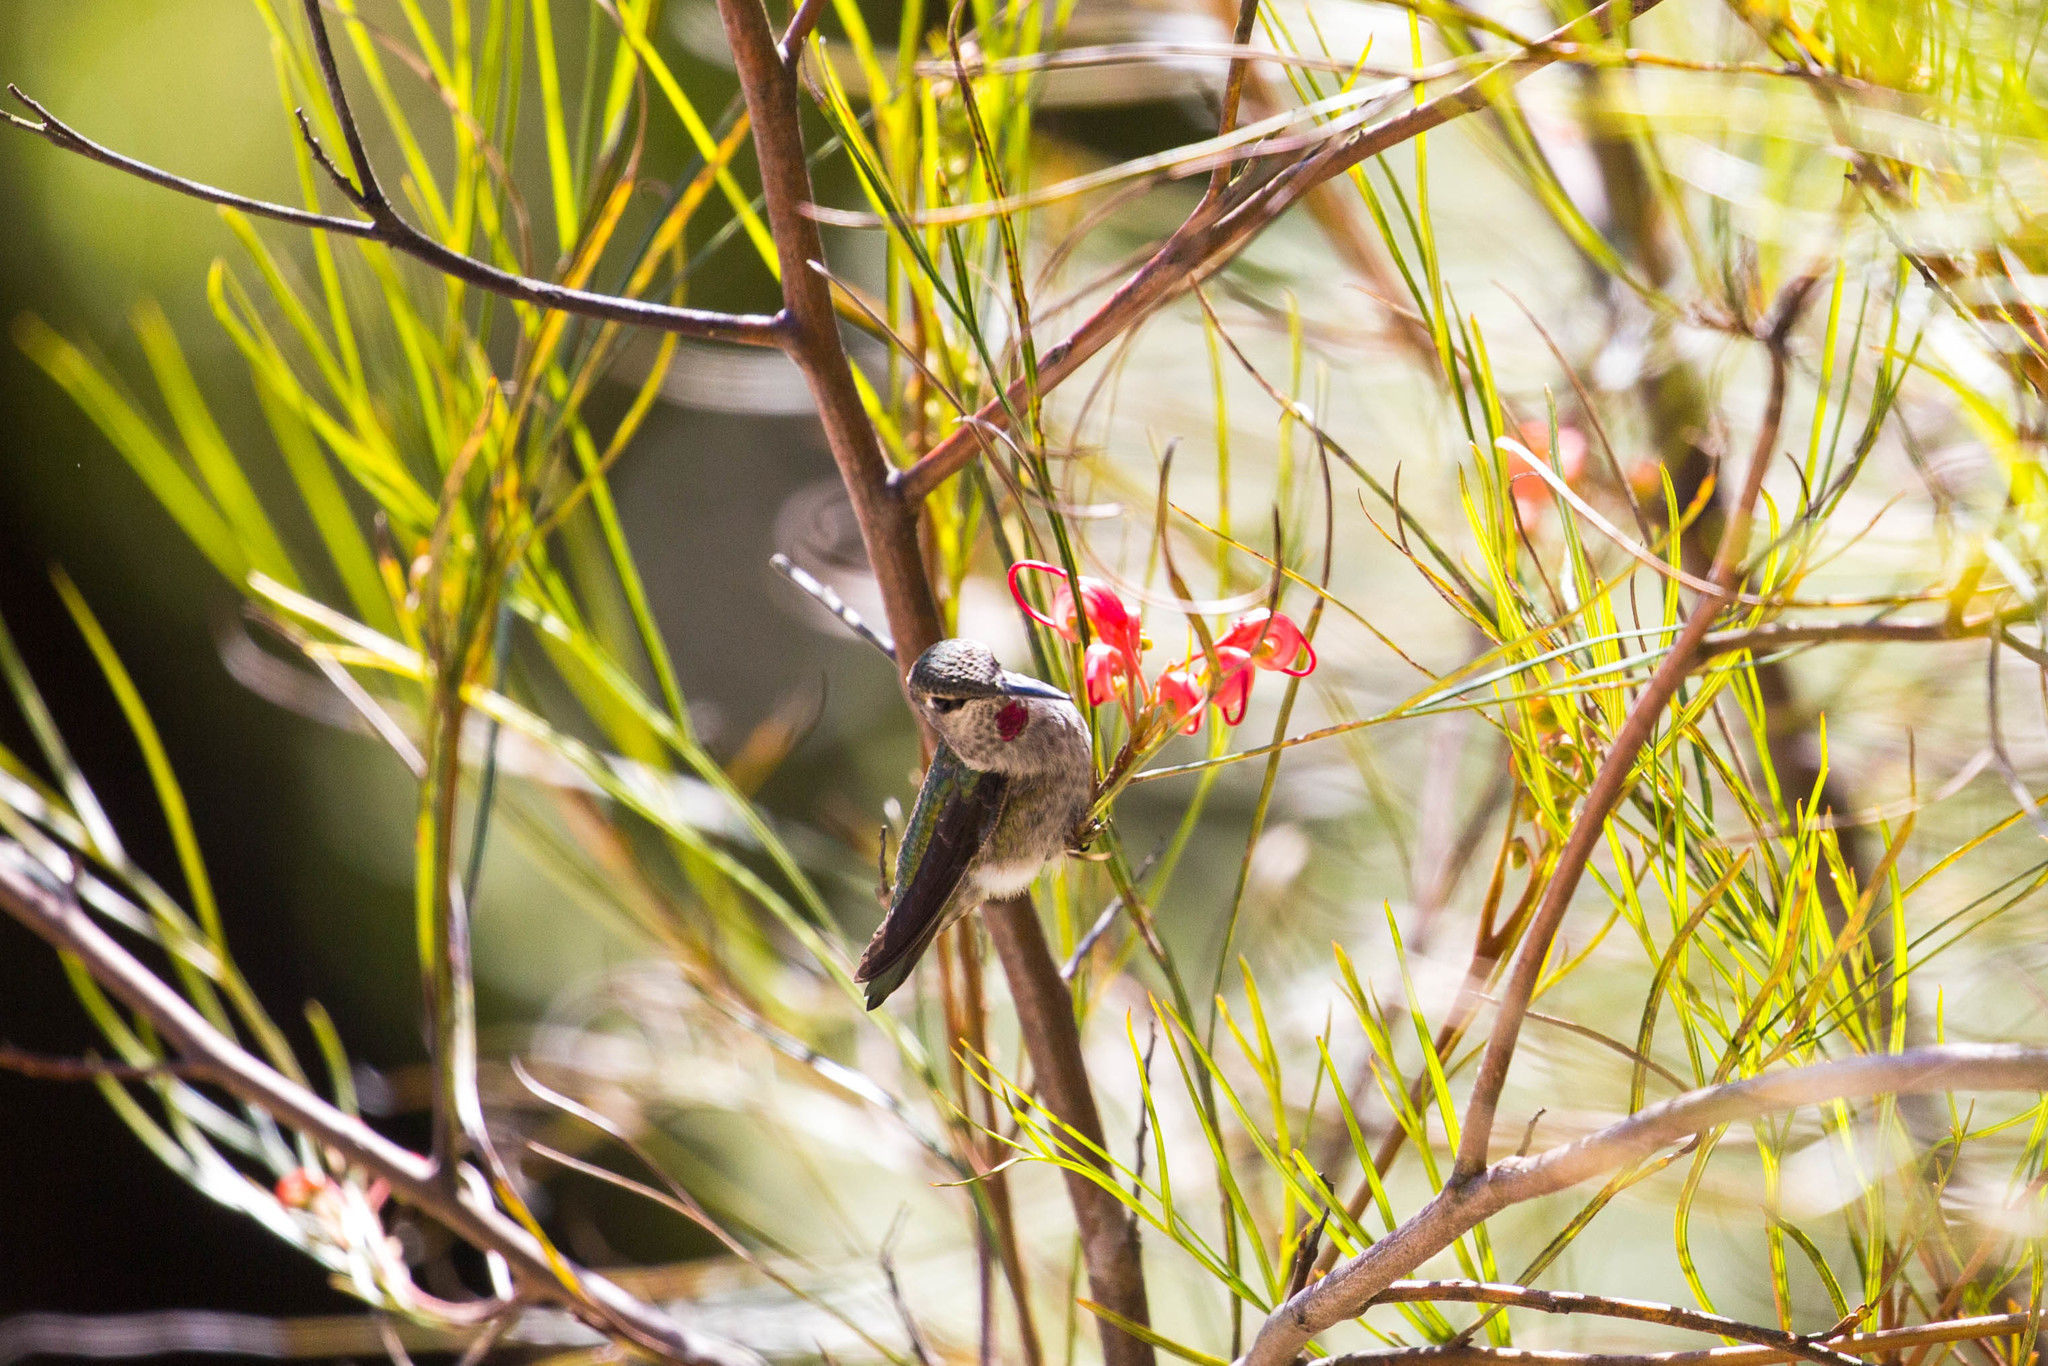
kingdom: Animalia
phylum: Chordata
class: Aves
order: Apodiformes
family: Trochilidae
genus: Calypte
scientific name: Calypte anna
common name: Anna's hummingbird
